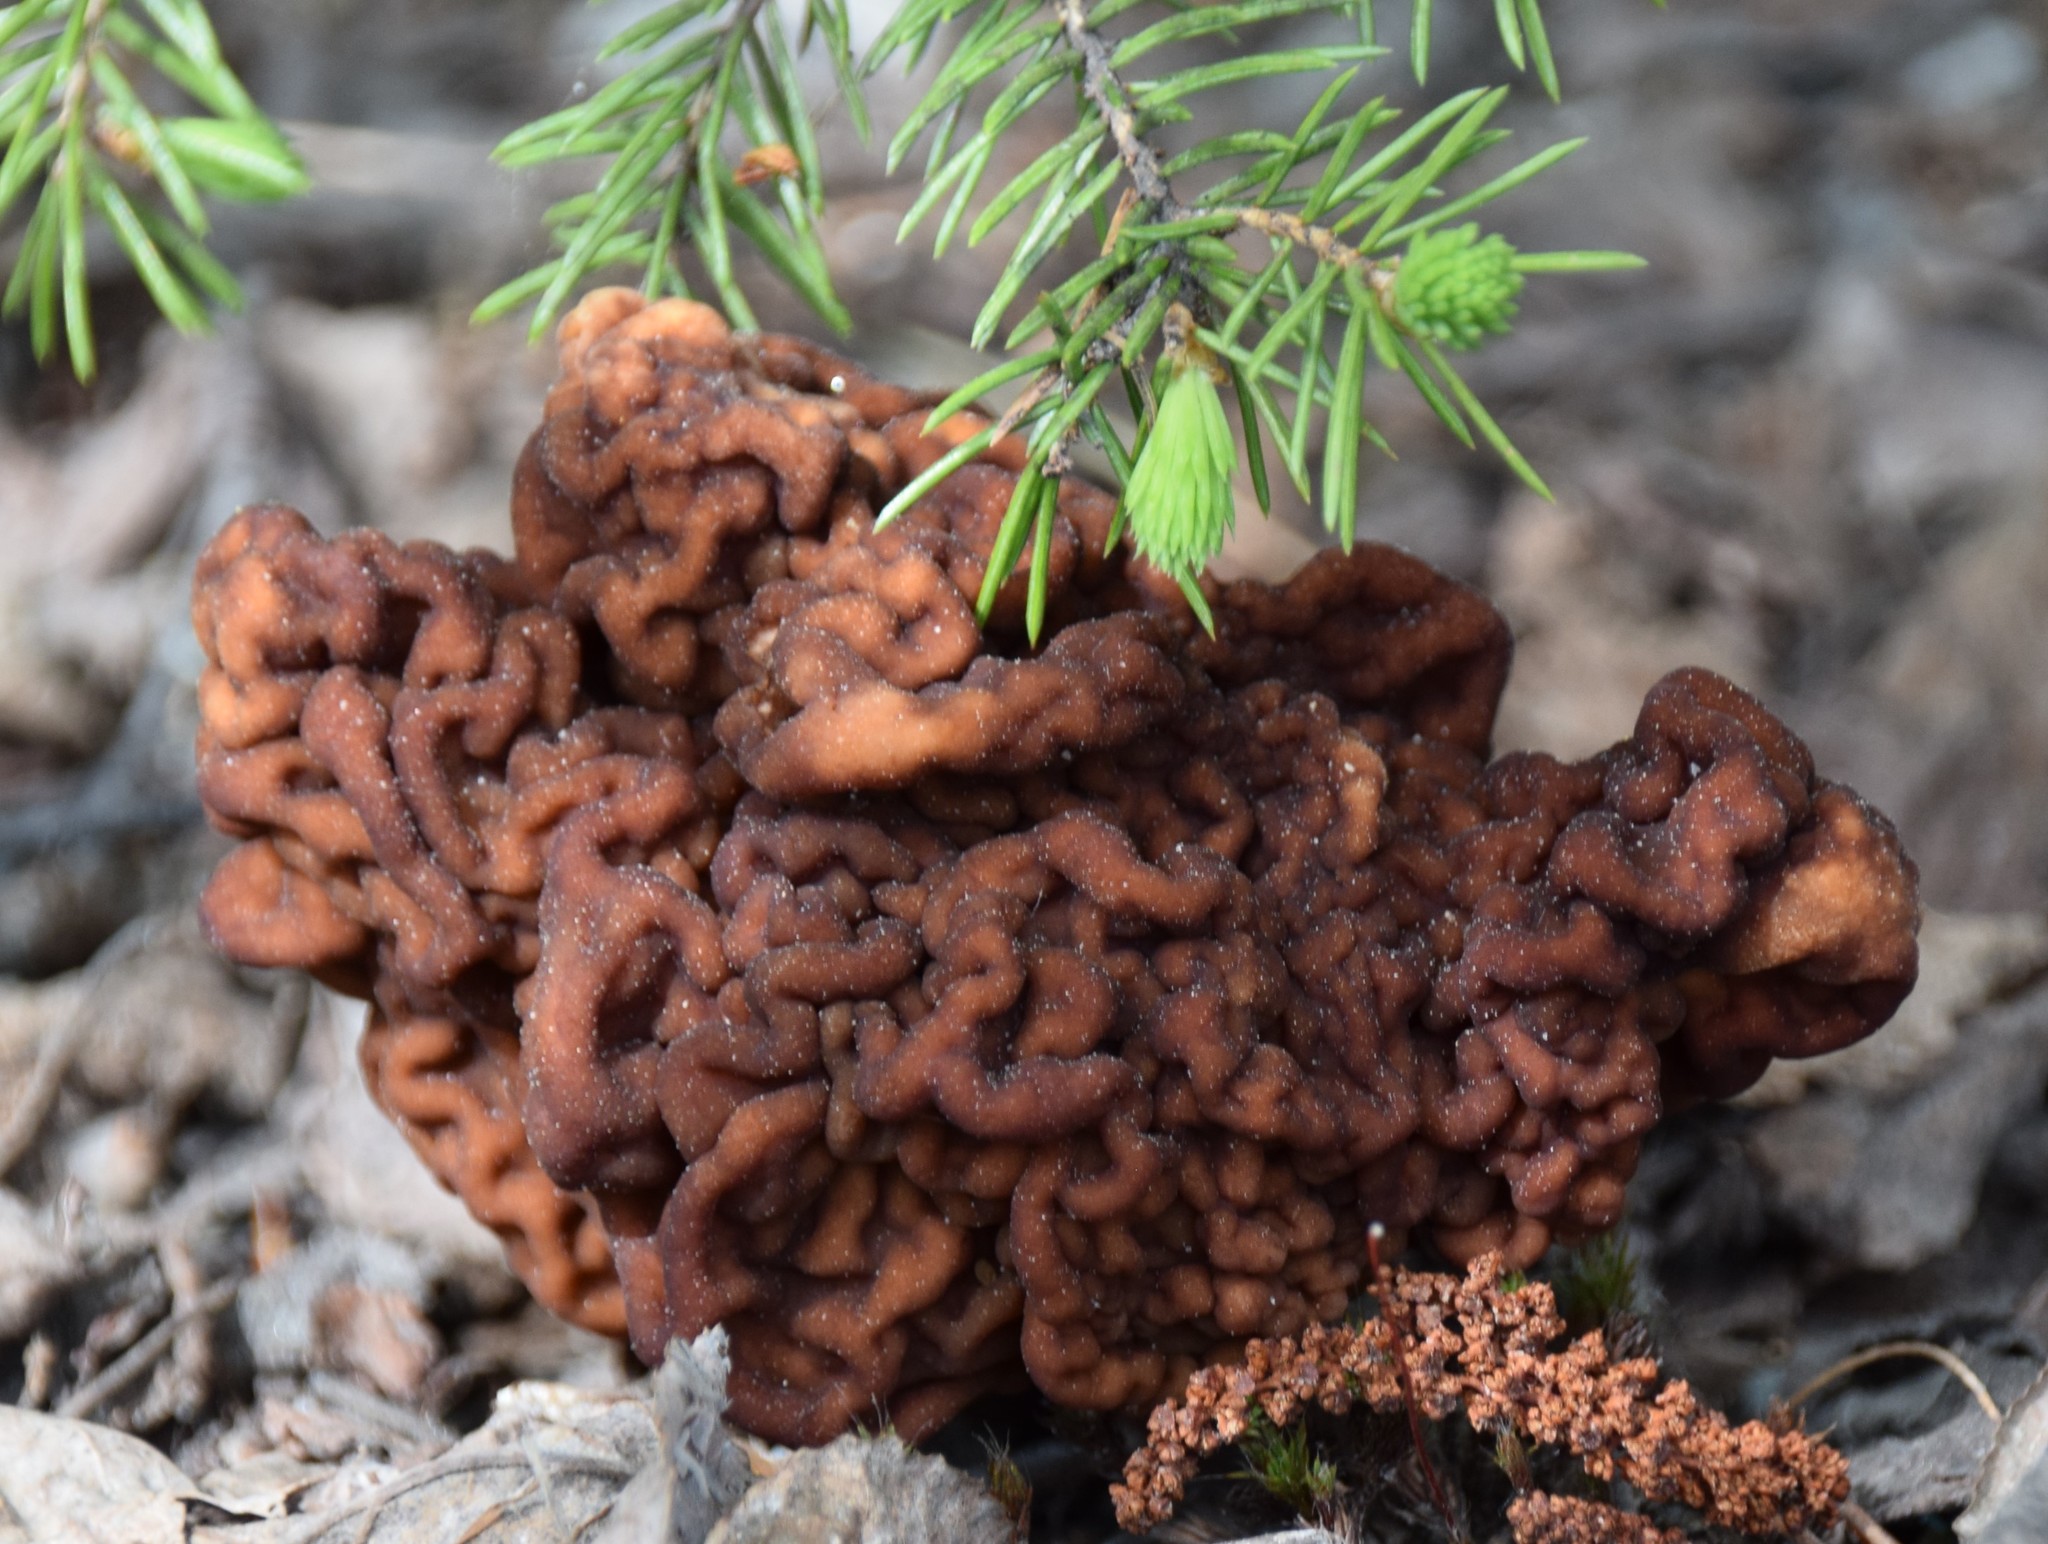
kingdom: Fungi
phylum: Ascomycota
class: Pezizomycetes
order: Pezizales
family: Discinaceae
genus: Gyromitra
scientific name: Gyromitra esculenta
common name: False morel
